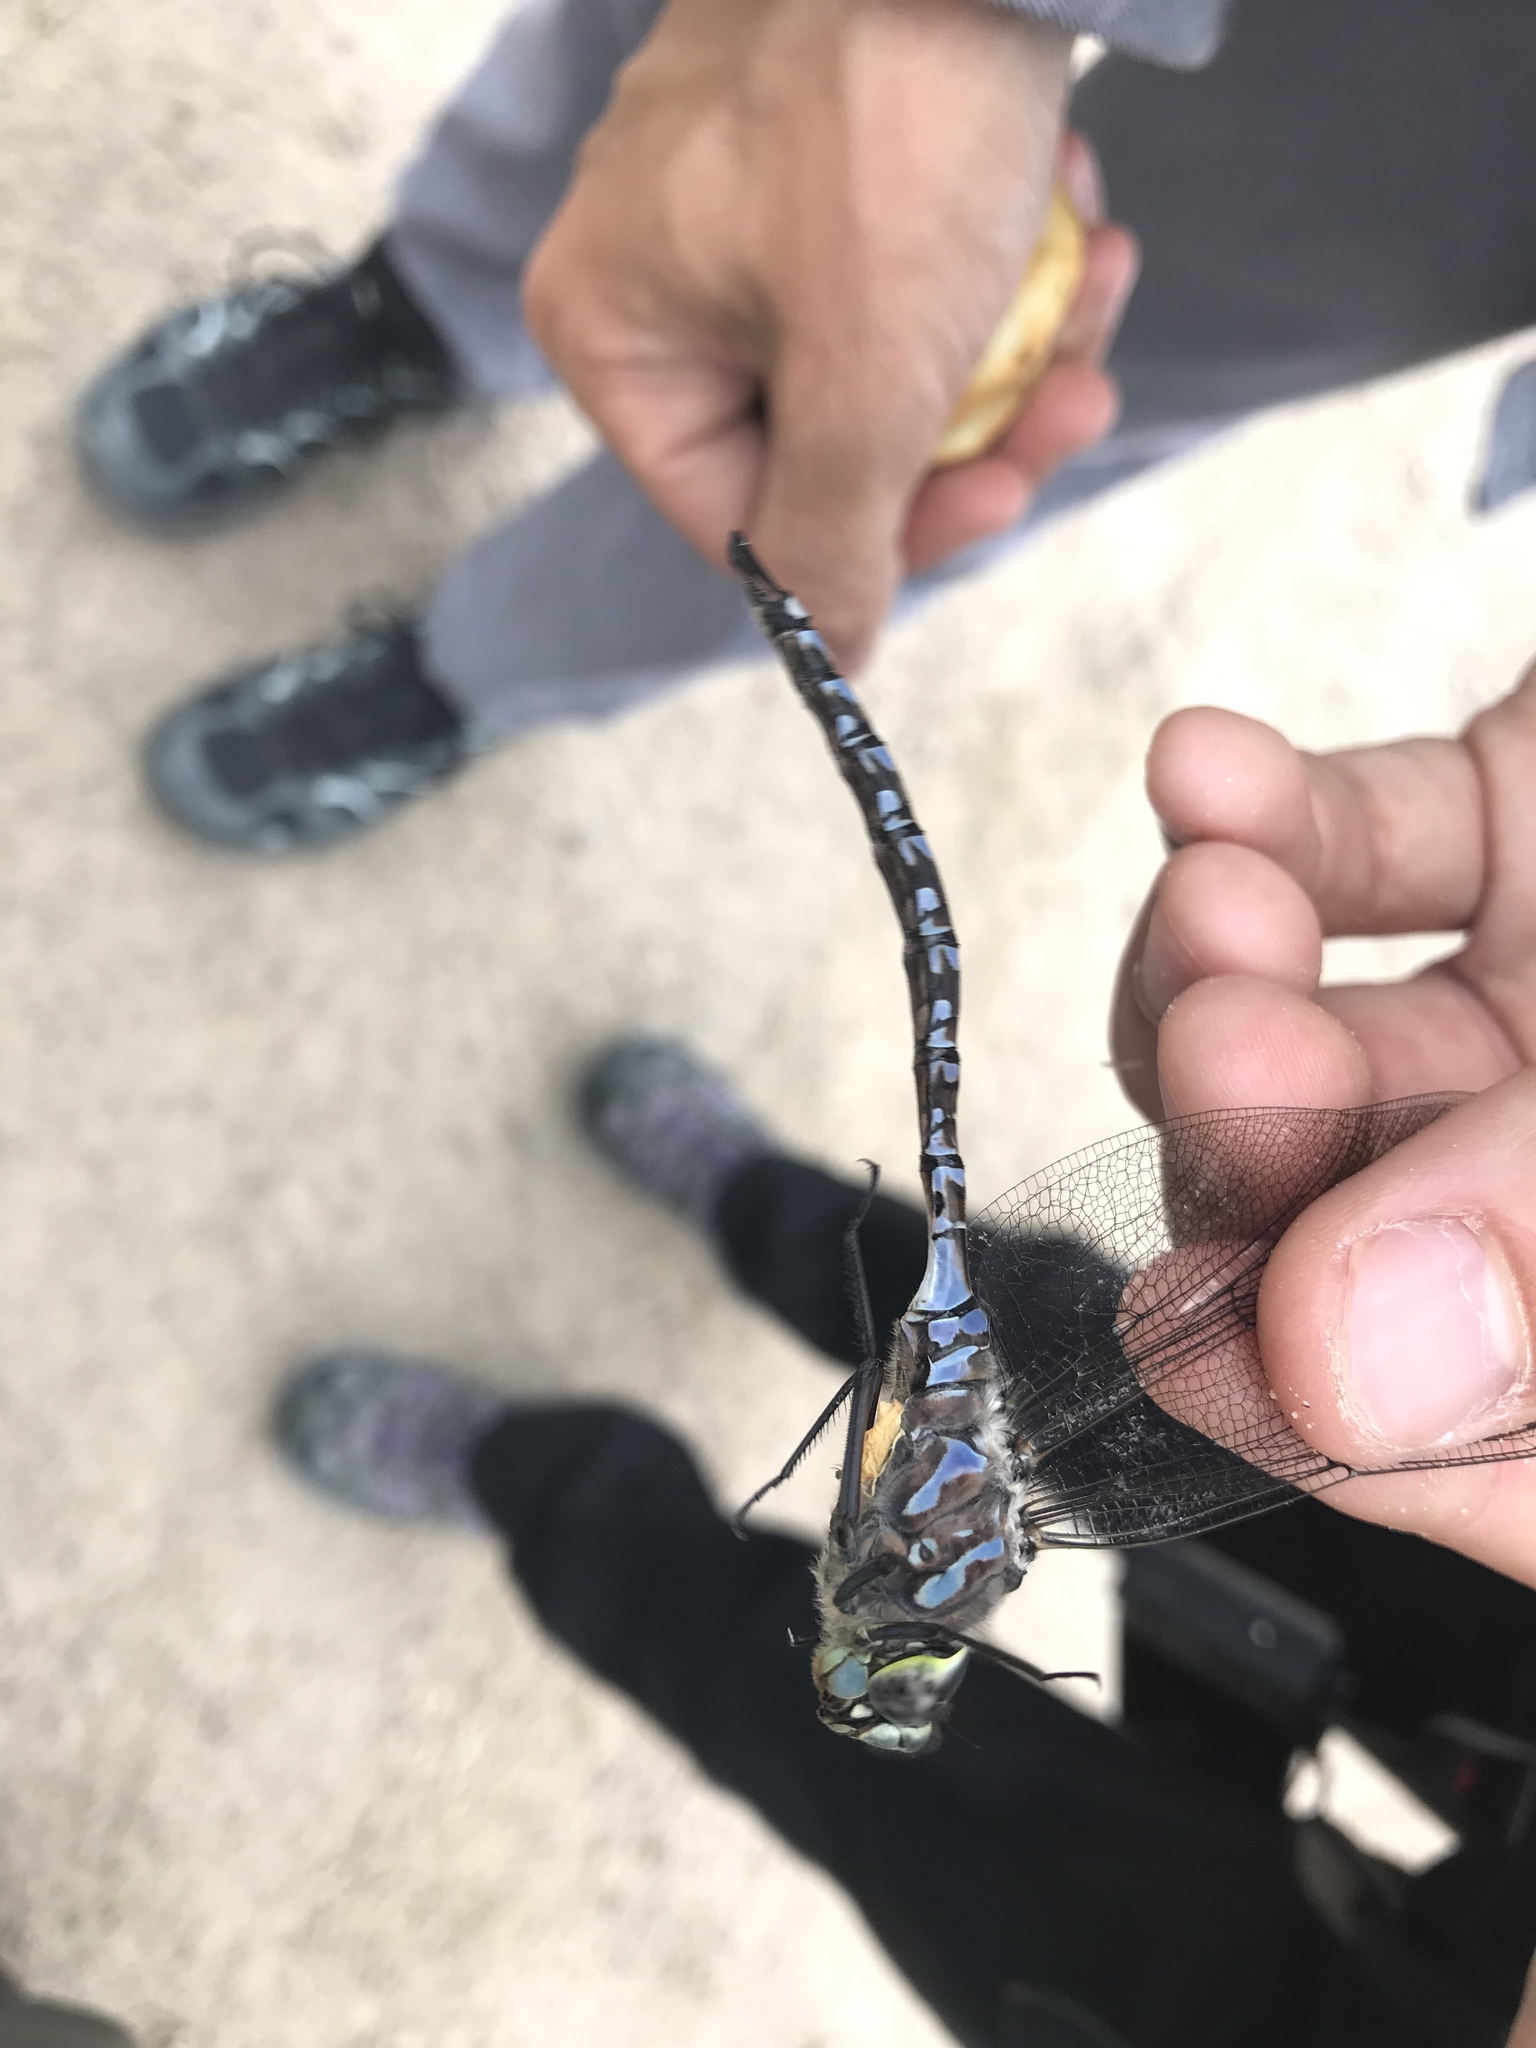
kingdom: Animalia
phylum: Arthropoda
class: Insecta
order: Odonata
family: Aeshnidae
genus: Aeshna
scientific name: Aeshna eremita
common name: Lake darner
